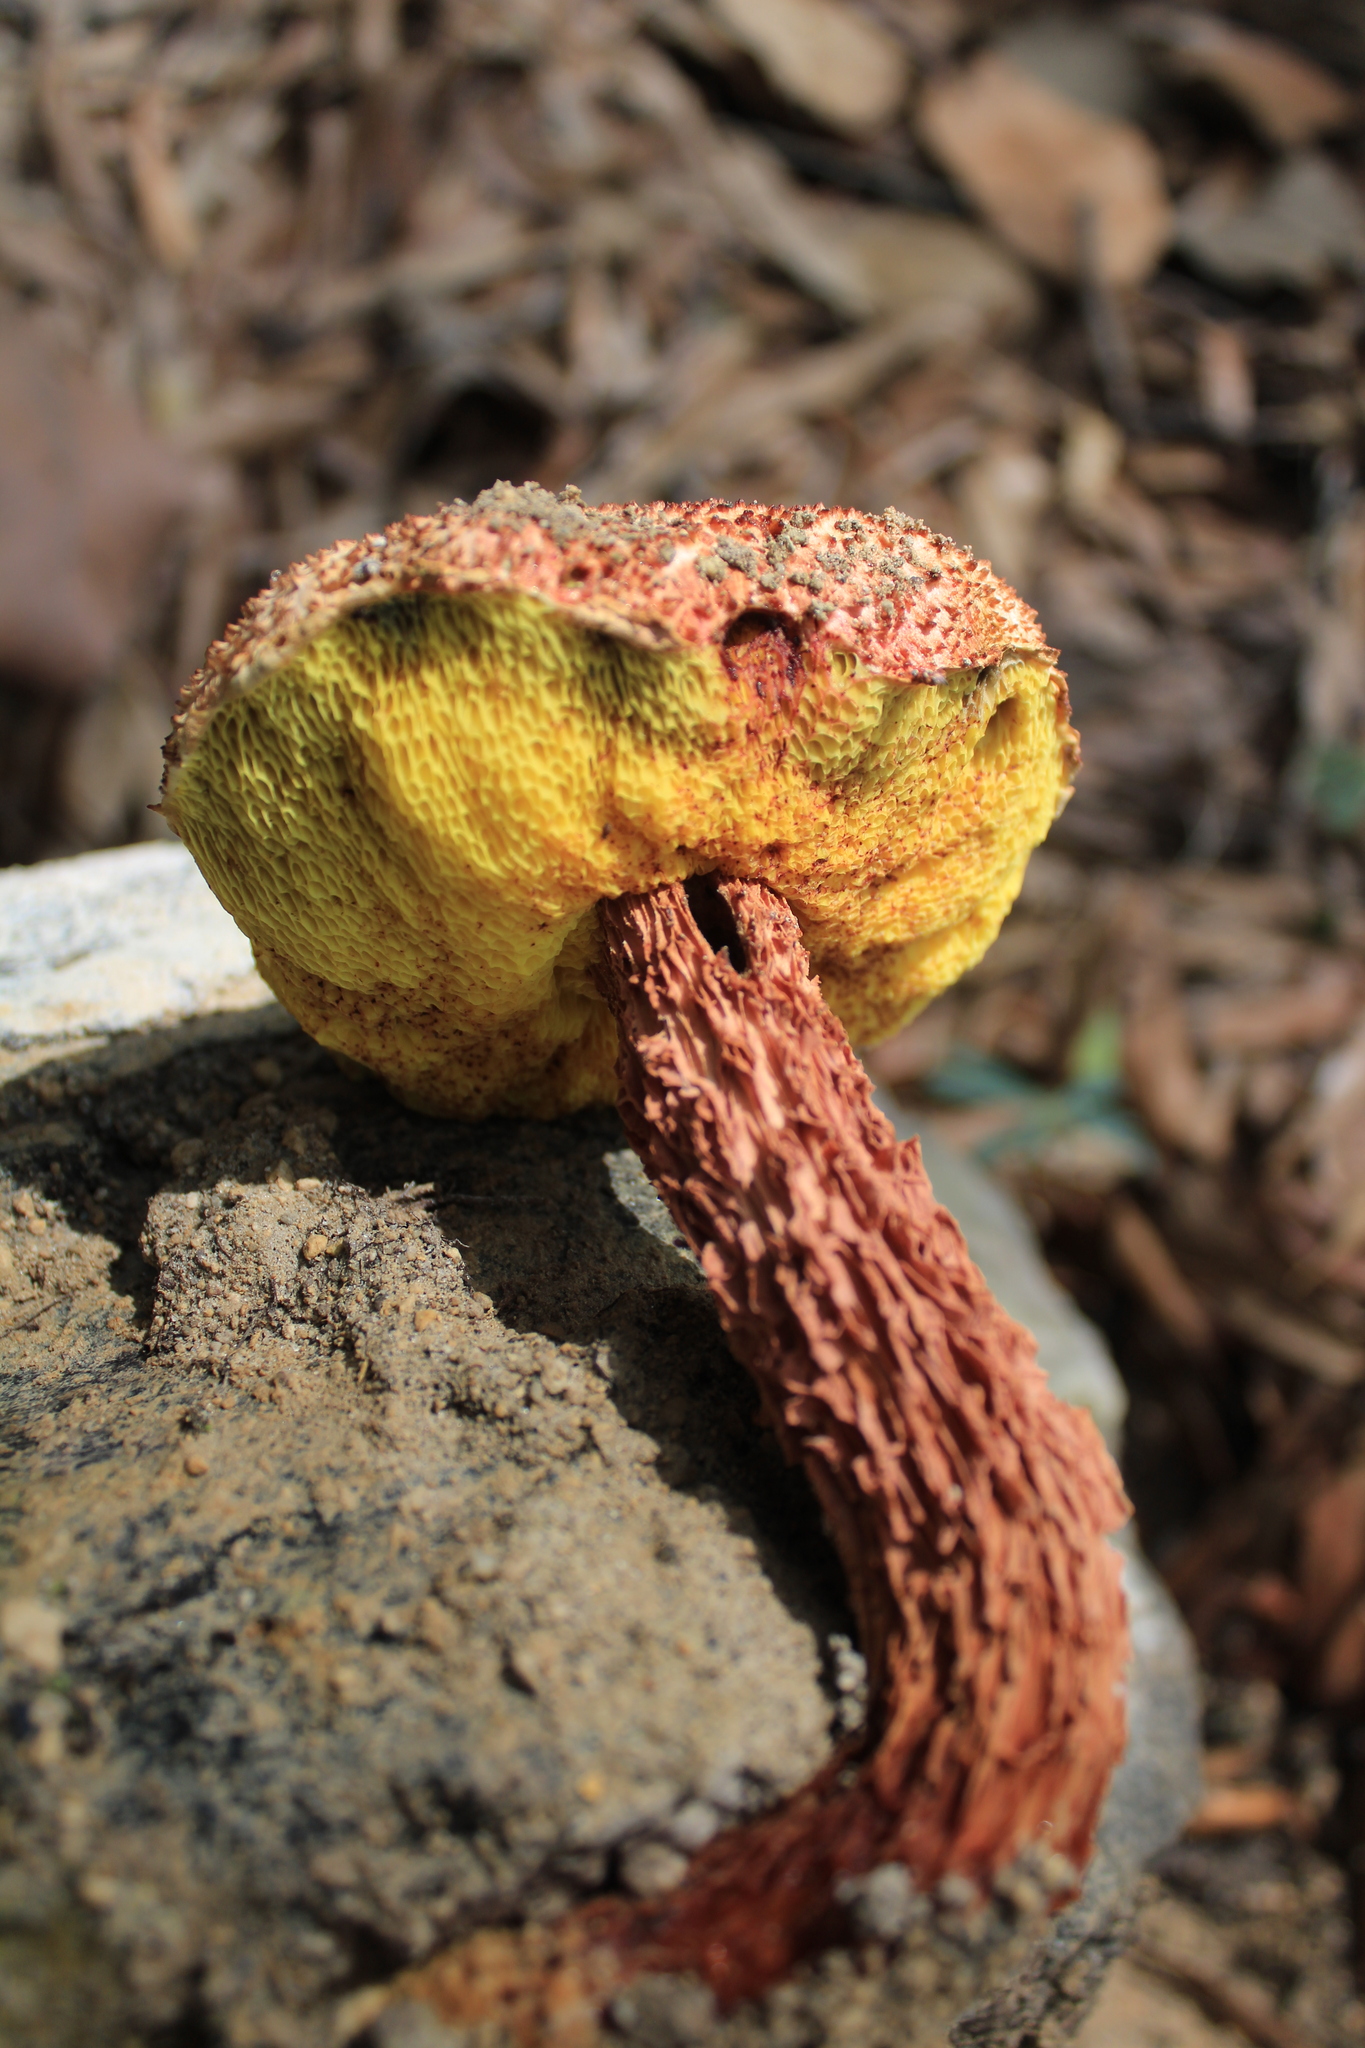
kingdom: Fungi
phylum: Basidiomycota
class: Agaricomycetes
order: Boletales
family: Boletaceae
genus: Aureoboletus
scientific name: Aureoboletus russellii
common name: Russell's bolete
